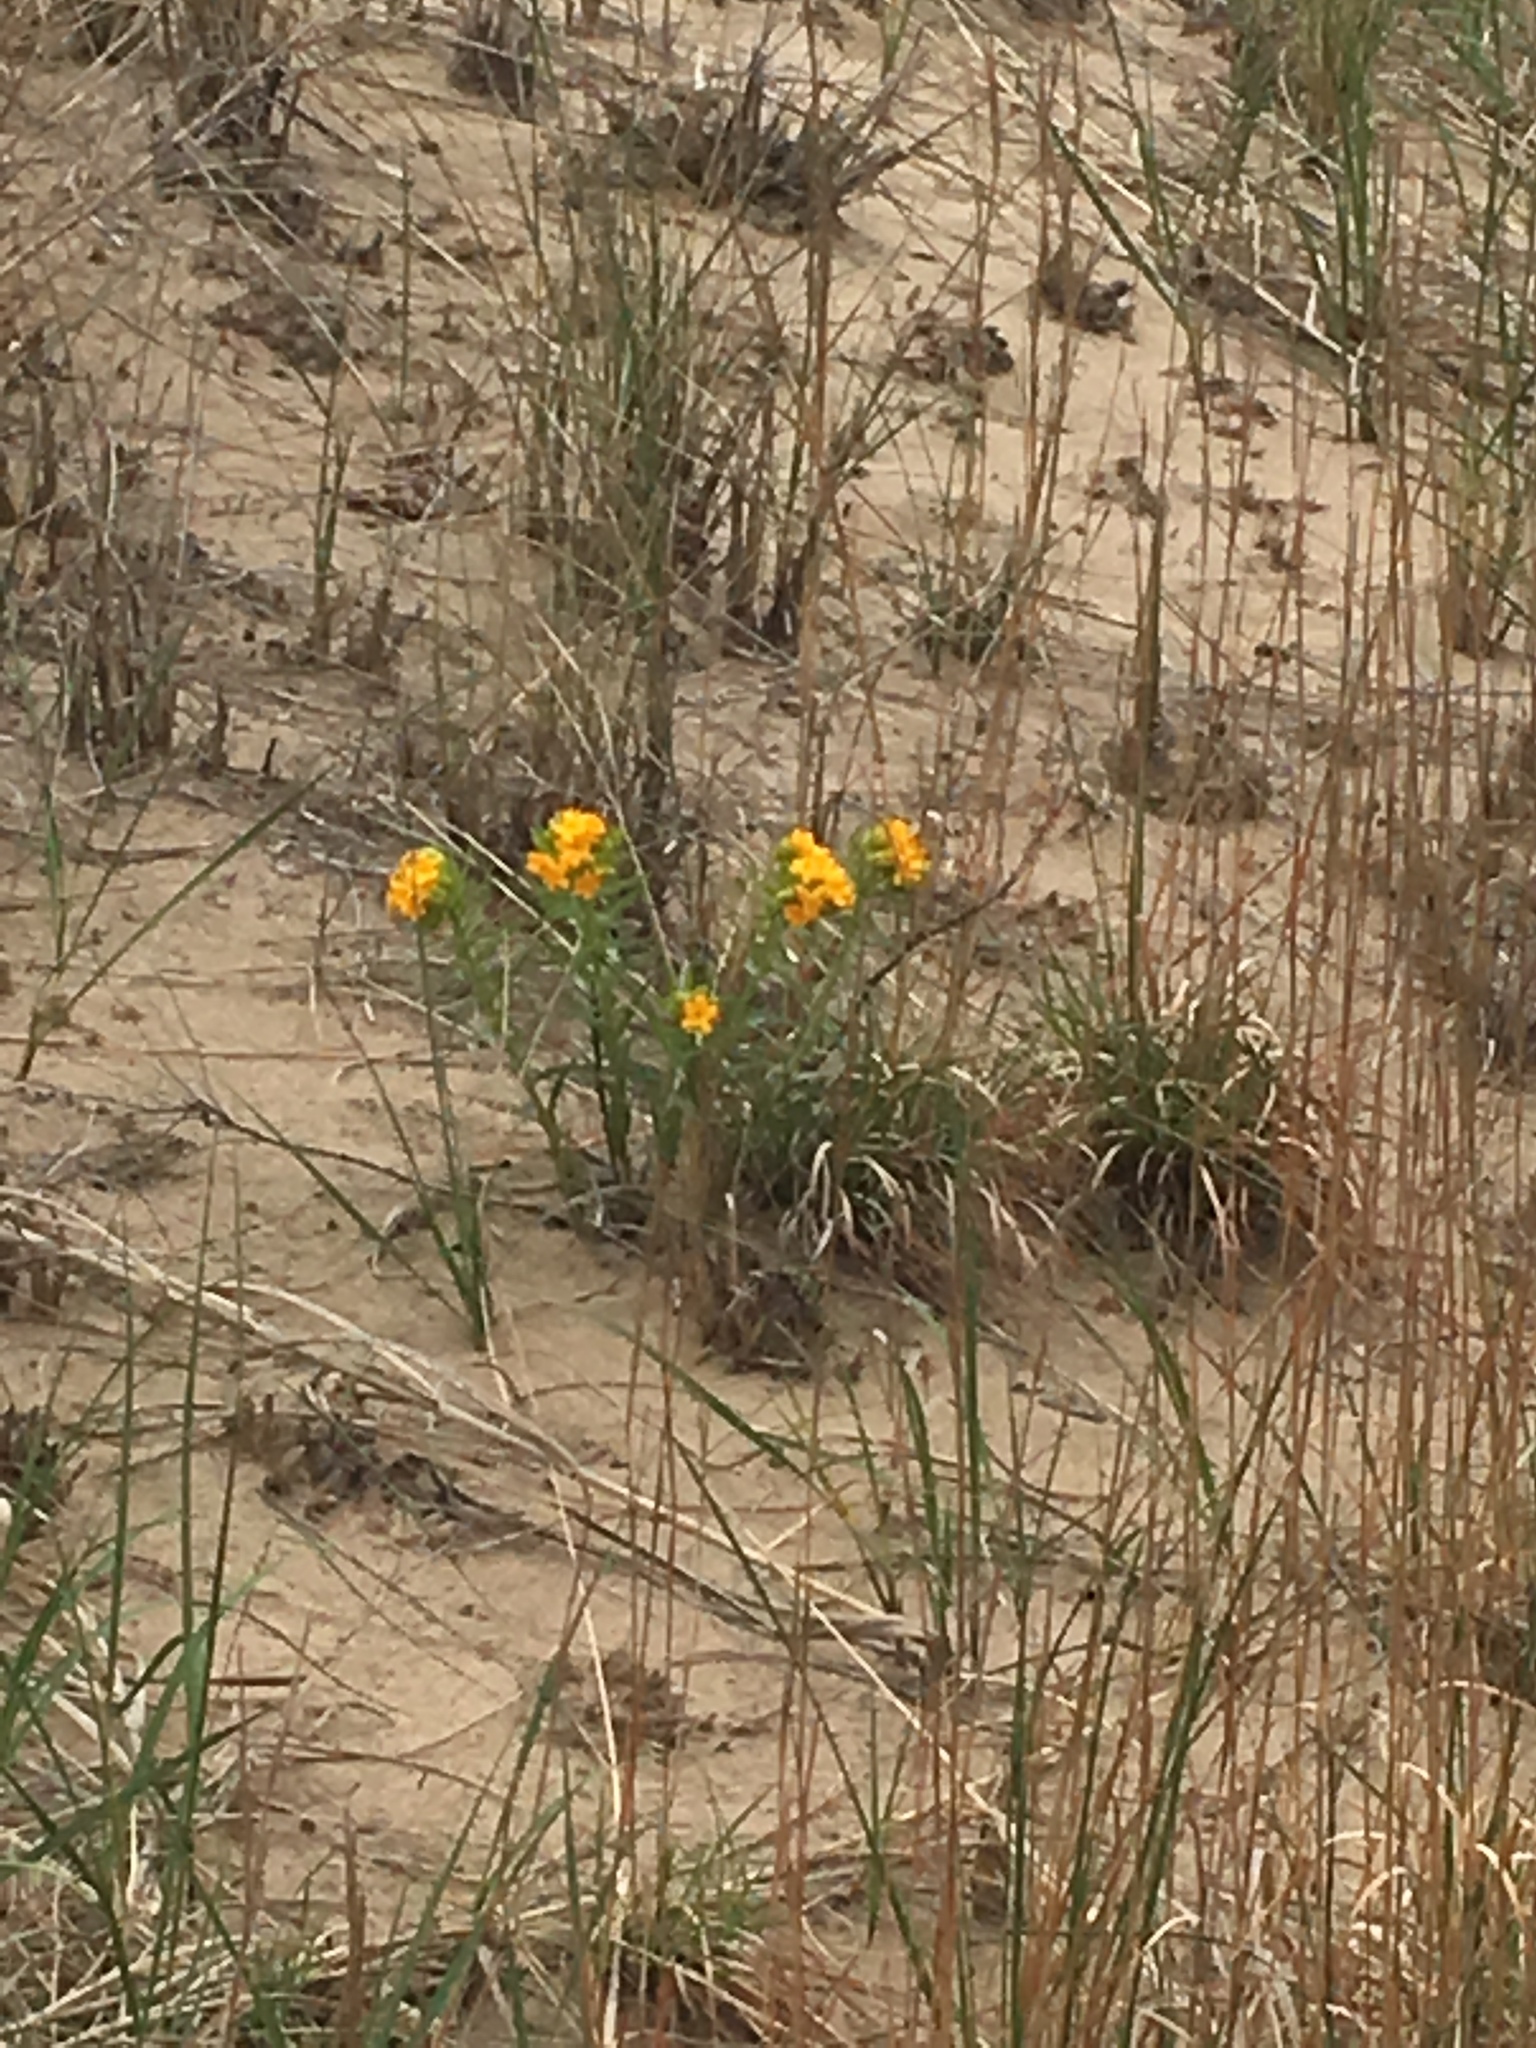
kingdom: Plantae
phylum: Tracheophyta
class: Magnoliopsida
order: Boraginales
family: Boraginaceae
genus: Lithospermum
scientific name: Lithospermum
